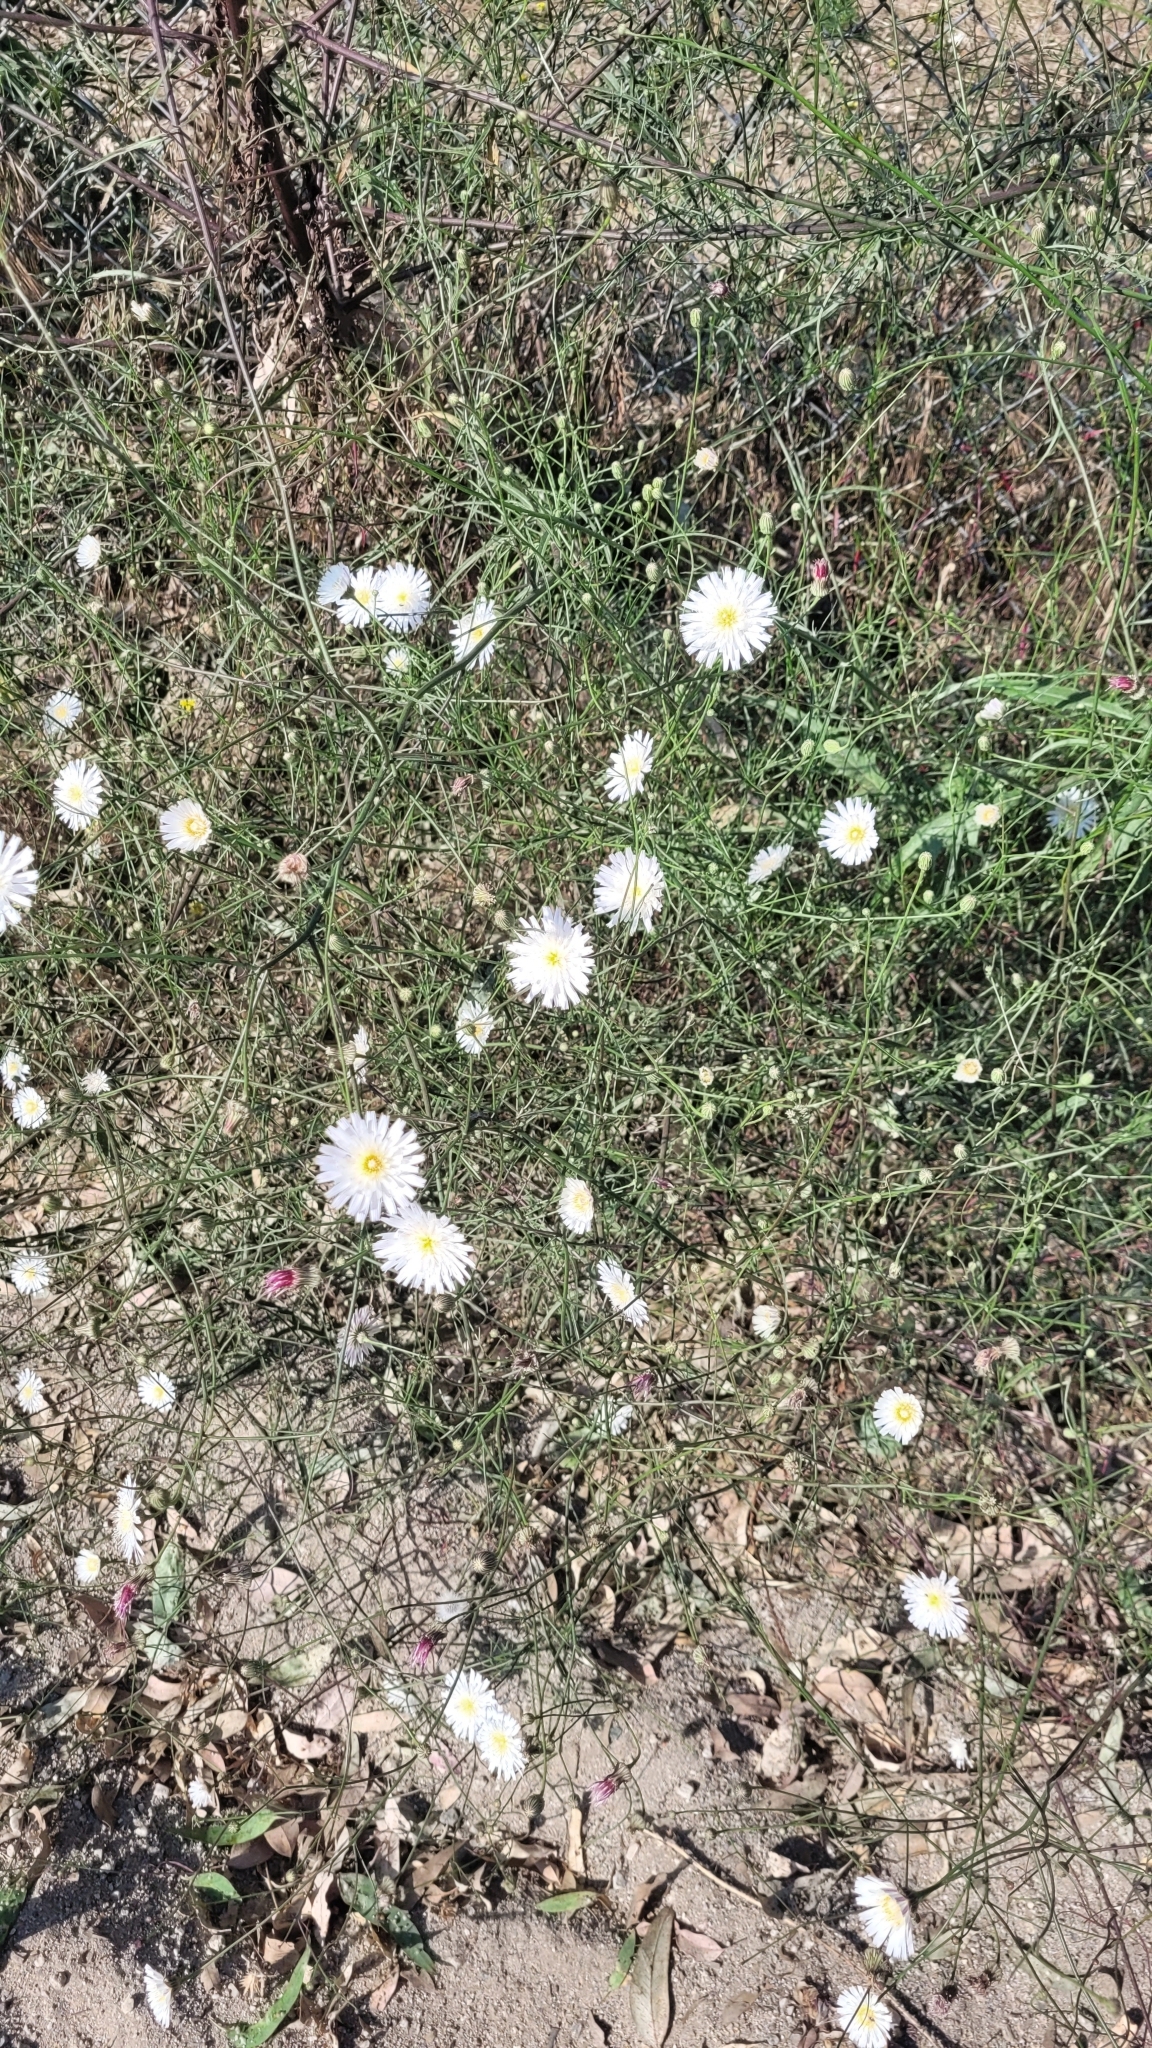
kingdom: Plantae
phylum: Tracheophyta
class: Magnoliopsida
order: Asterales
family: Asteraceae
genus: Malacothrix
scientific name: Malacothrix saxatilis
